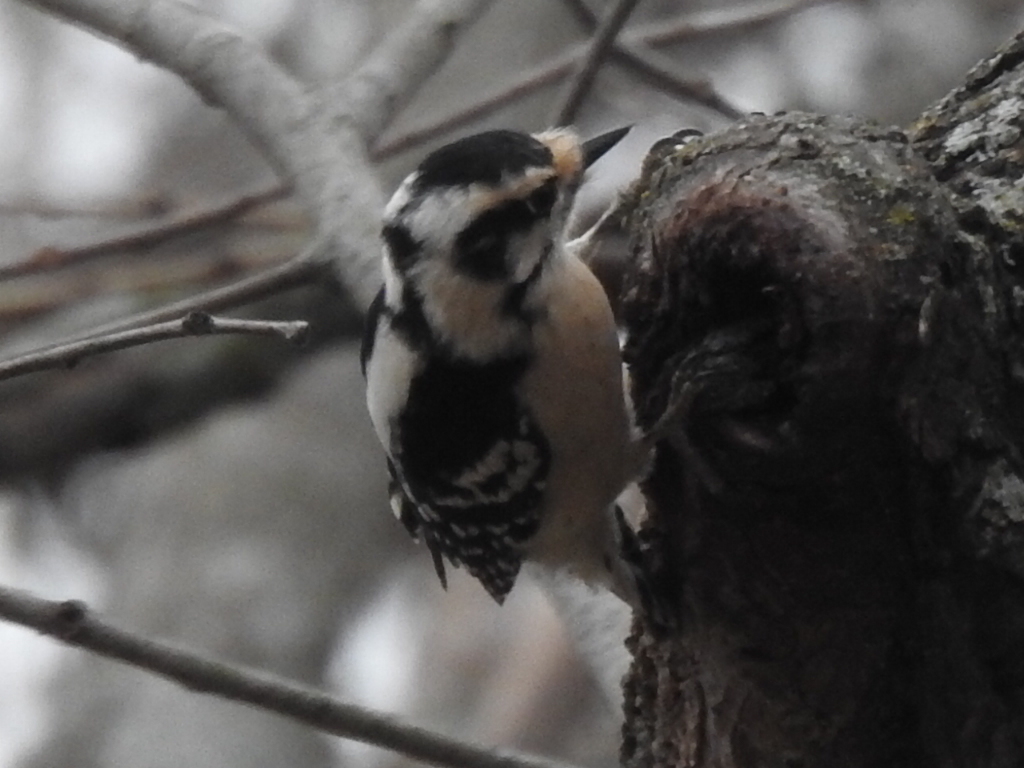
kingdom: Animalia
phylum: Chordata
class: Aves
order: Piciformes
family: Picidae
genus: Dryobates
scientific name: Dryobates pubescens
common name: Downy woodpecker
